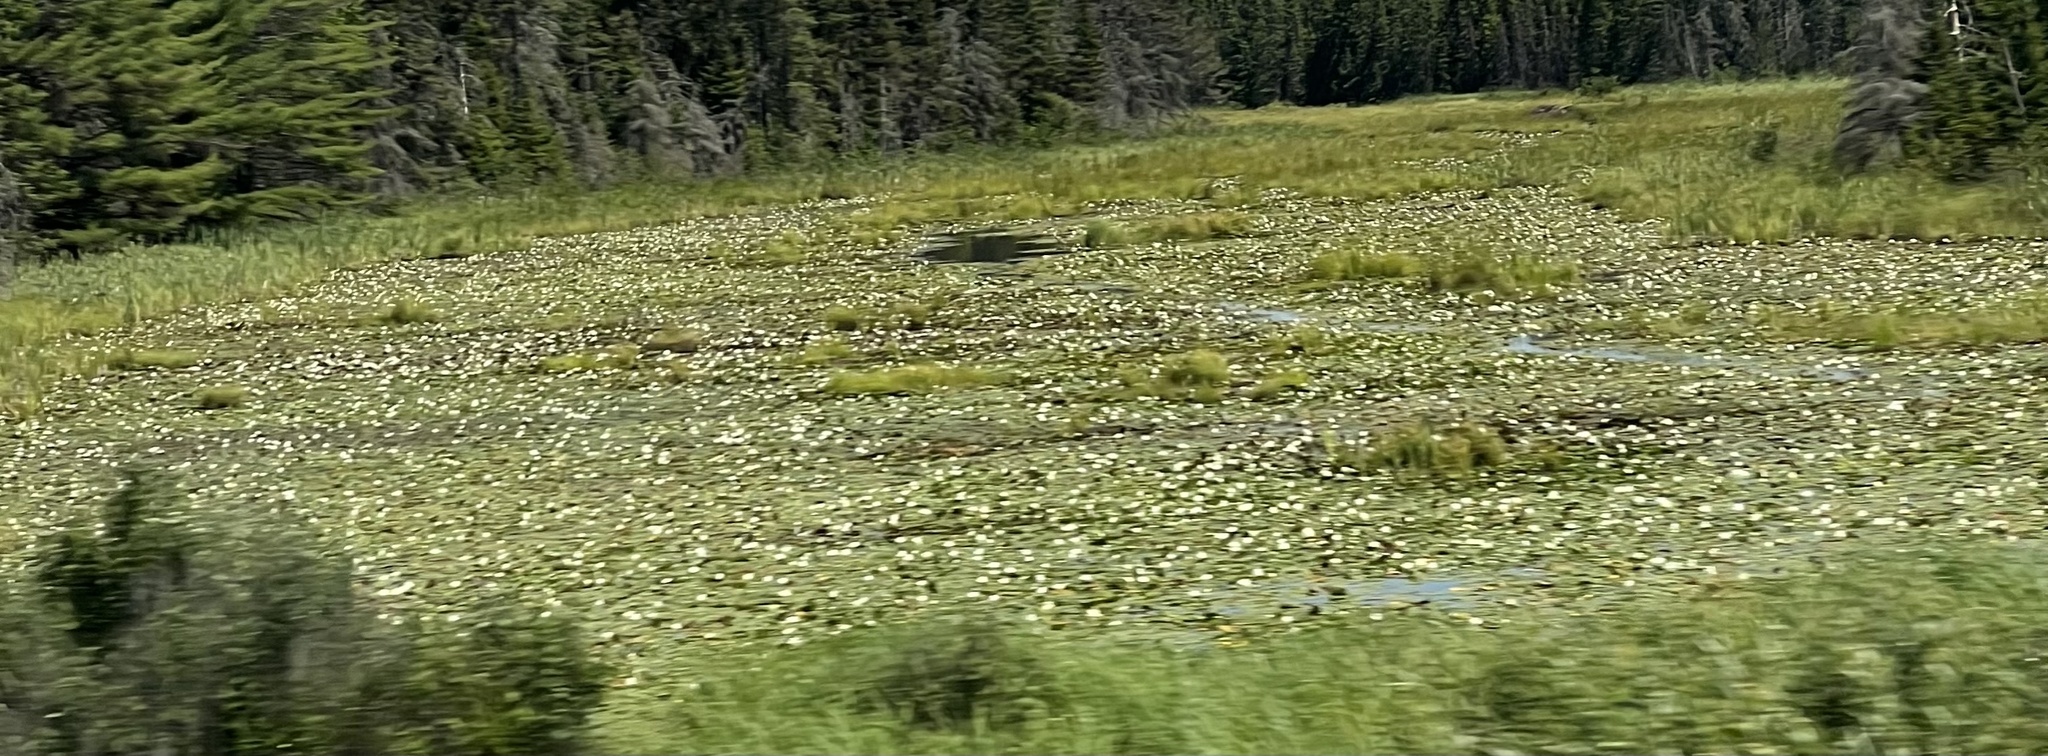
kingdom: Plantae
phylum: Tracheophyta
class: Magnoliopsida
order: Nymphaeales
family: Nymphaeaceae
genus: Nymphaea
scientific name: Nymphaea odorata
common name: Fragrant water-lily
